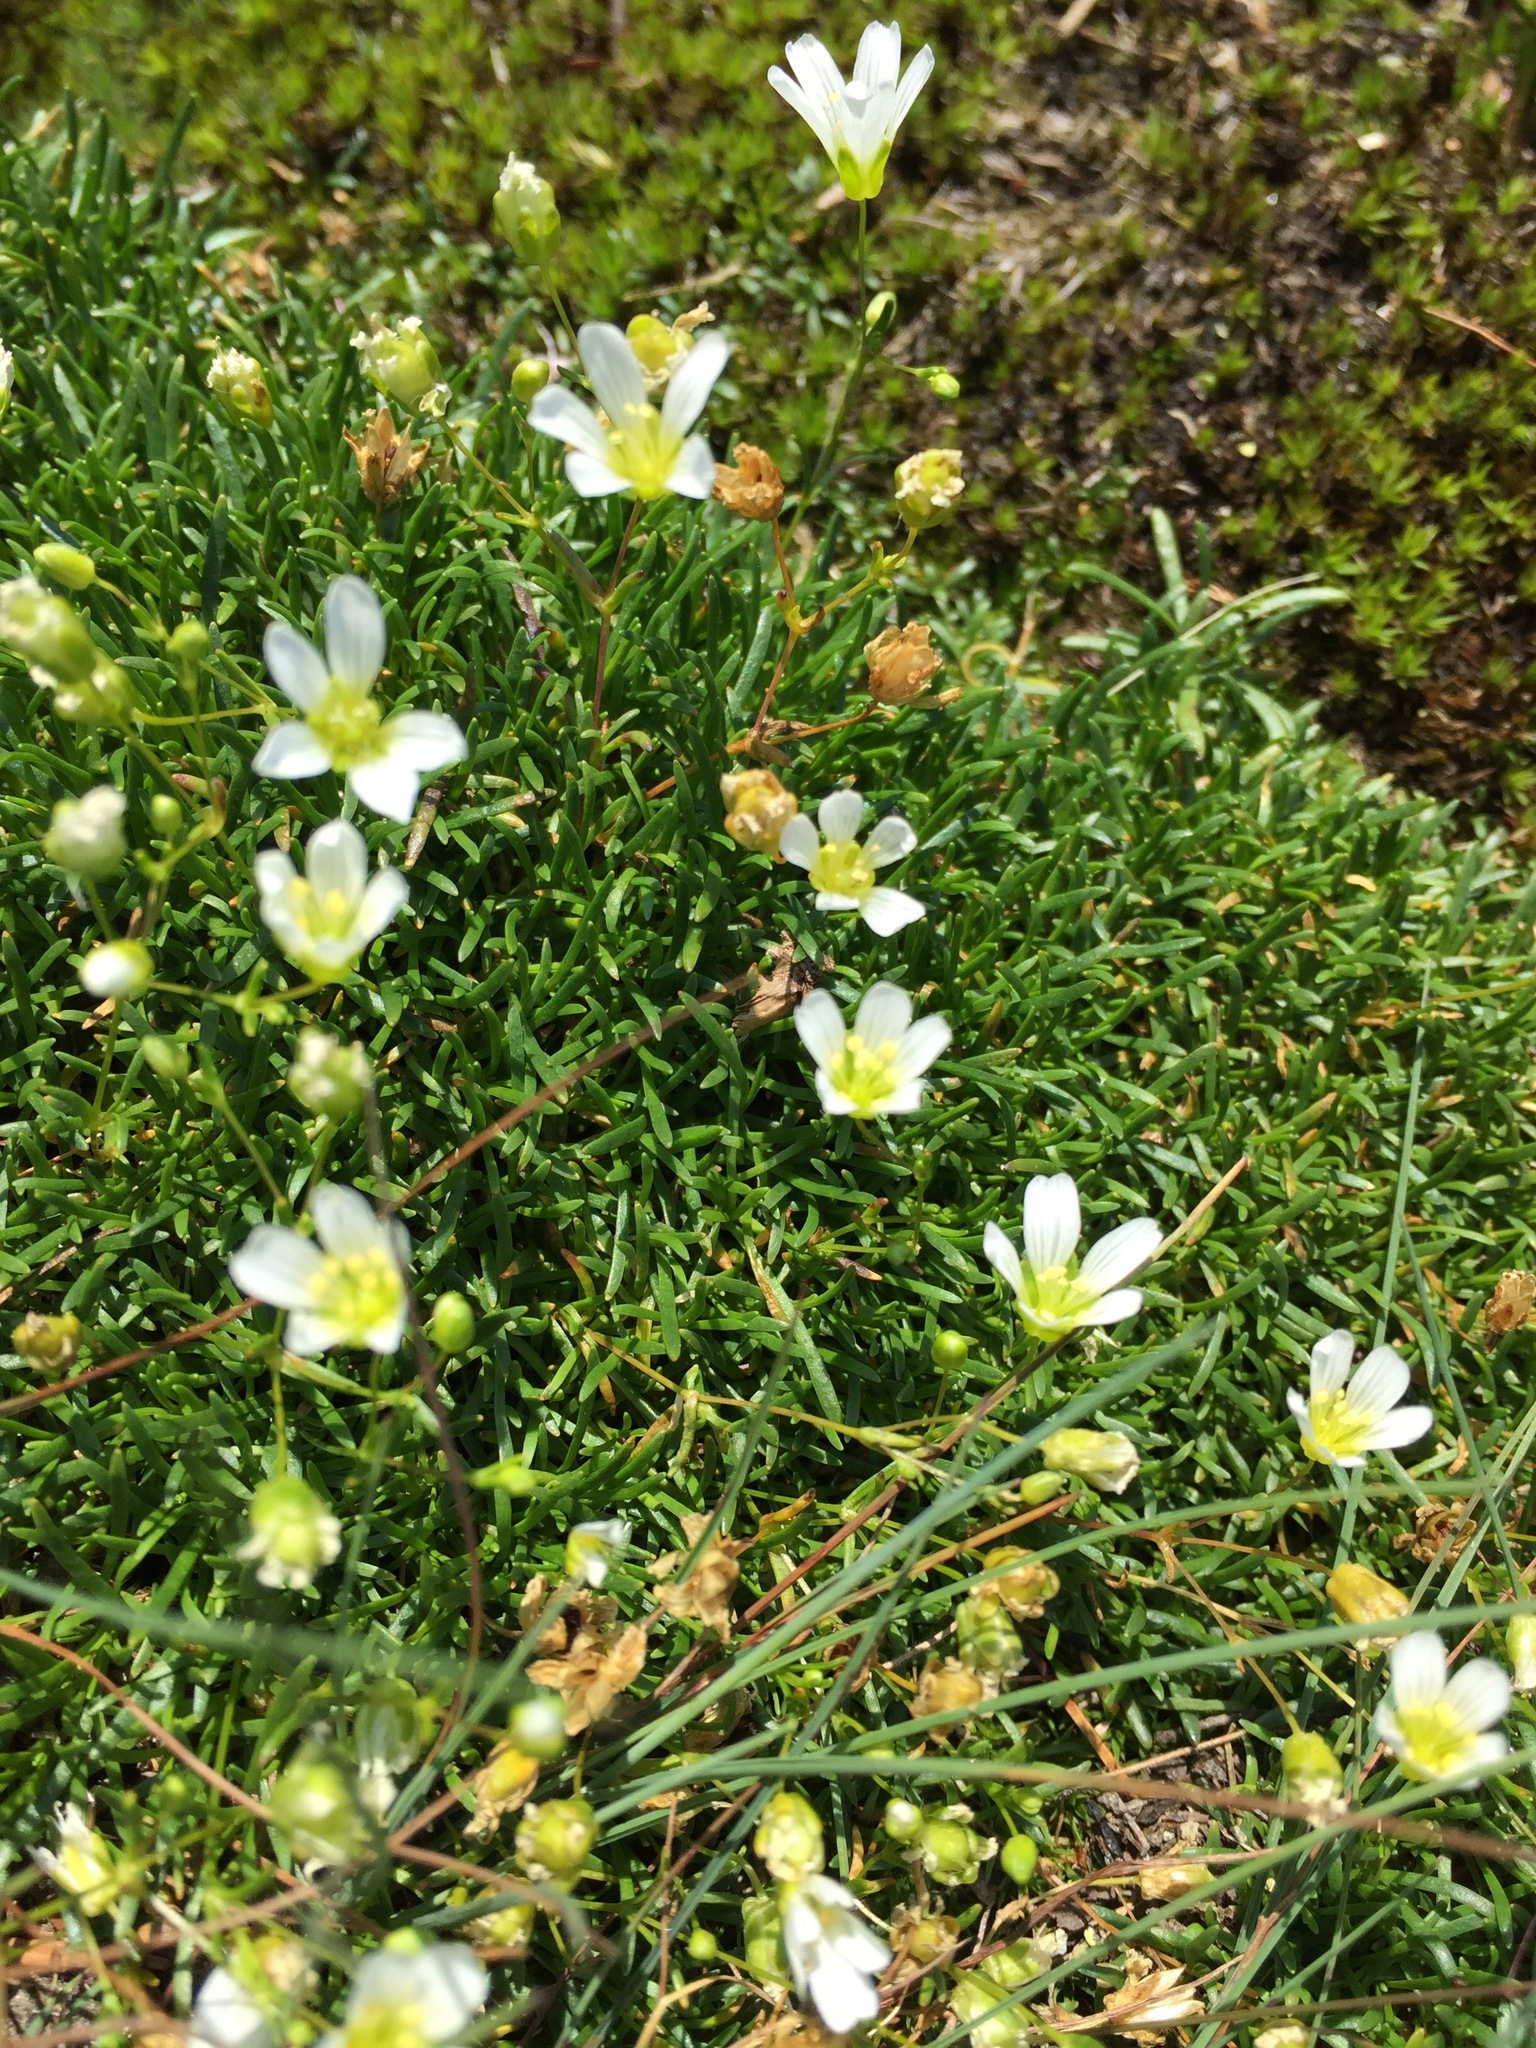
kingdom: Plantae
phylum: Tracheophyta
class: Magnoliopsida
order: Caryophyllales
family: Caryophyllaceae
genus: Geocarpon
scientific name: Geocarpon groenlandicum
